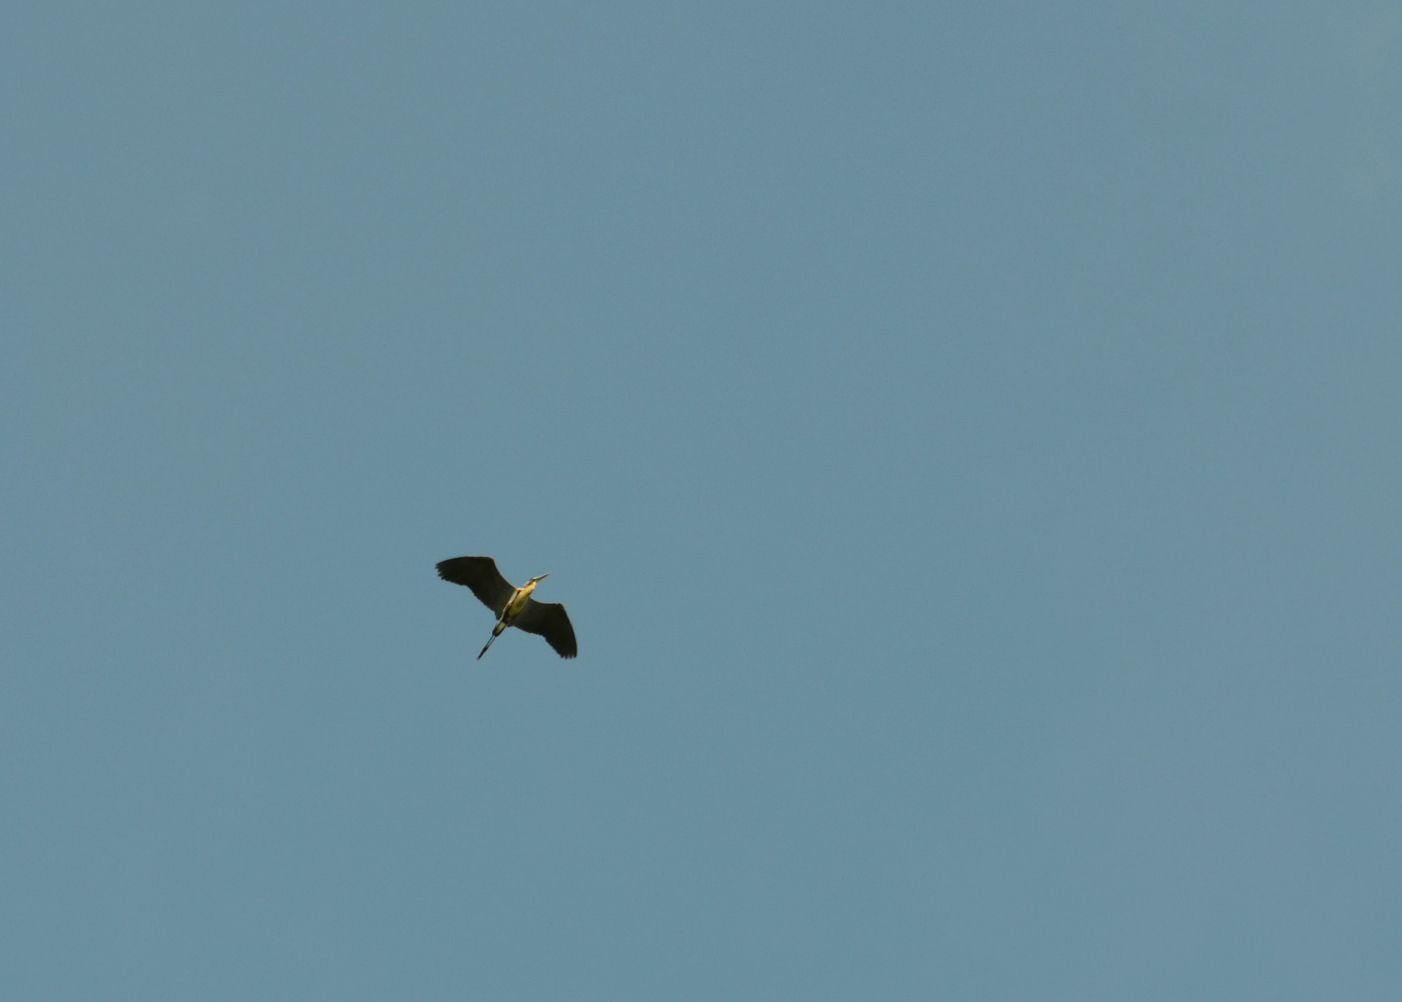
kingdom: Animalia
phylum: Chordata
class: Aves
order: Pelecaniformes
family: Ardeidae
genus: Ardea
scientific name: Ardea herodias
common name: Great blue heron
